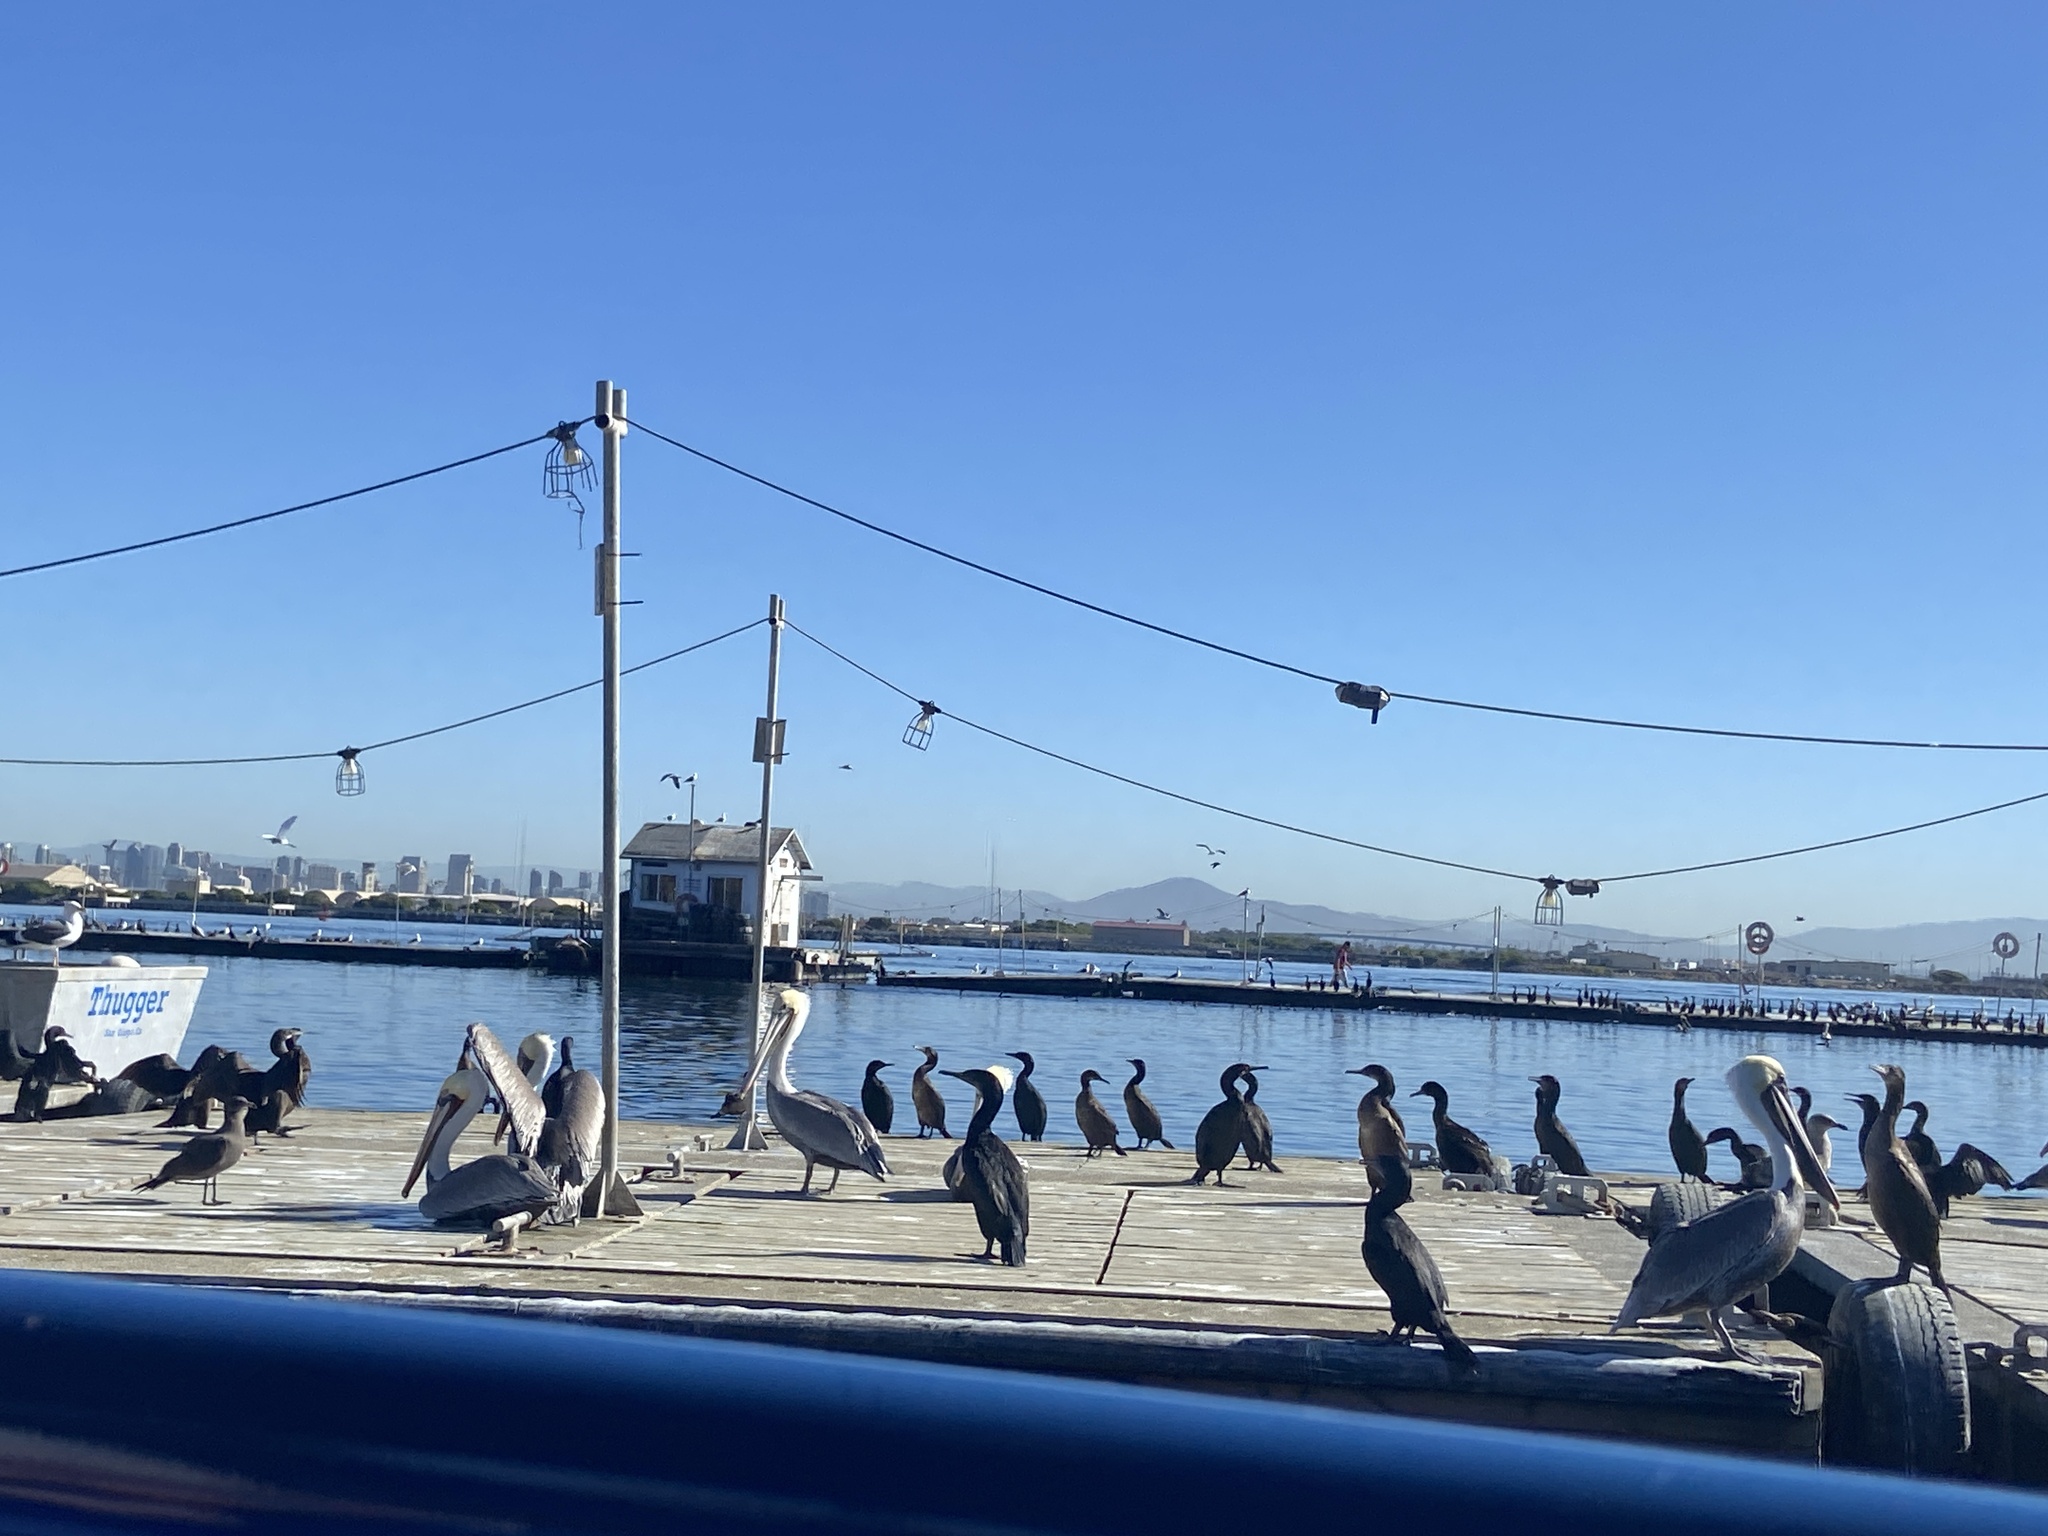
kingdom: Animalia
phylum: Chordata
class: Aves
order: Suliformes
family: Phalacrocoracidae
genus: Urile
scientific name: Urile penicillatus
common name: Brandt's cormorant
